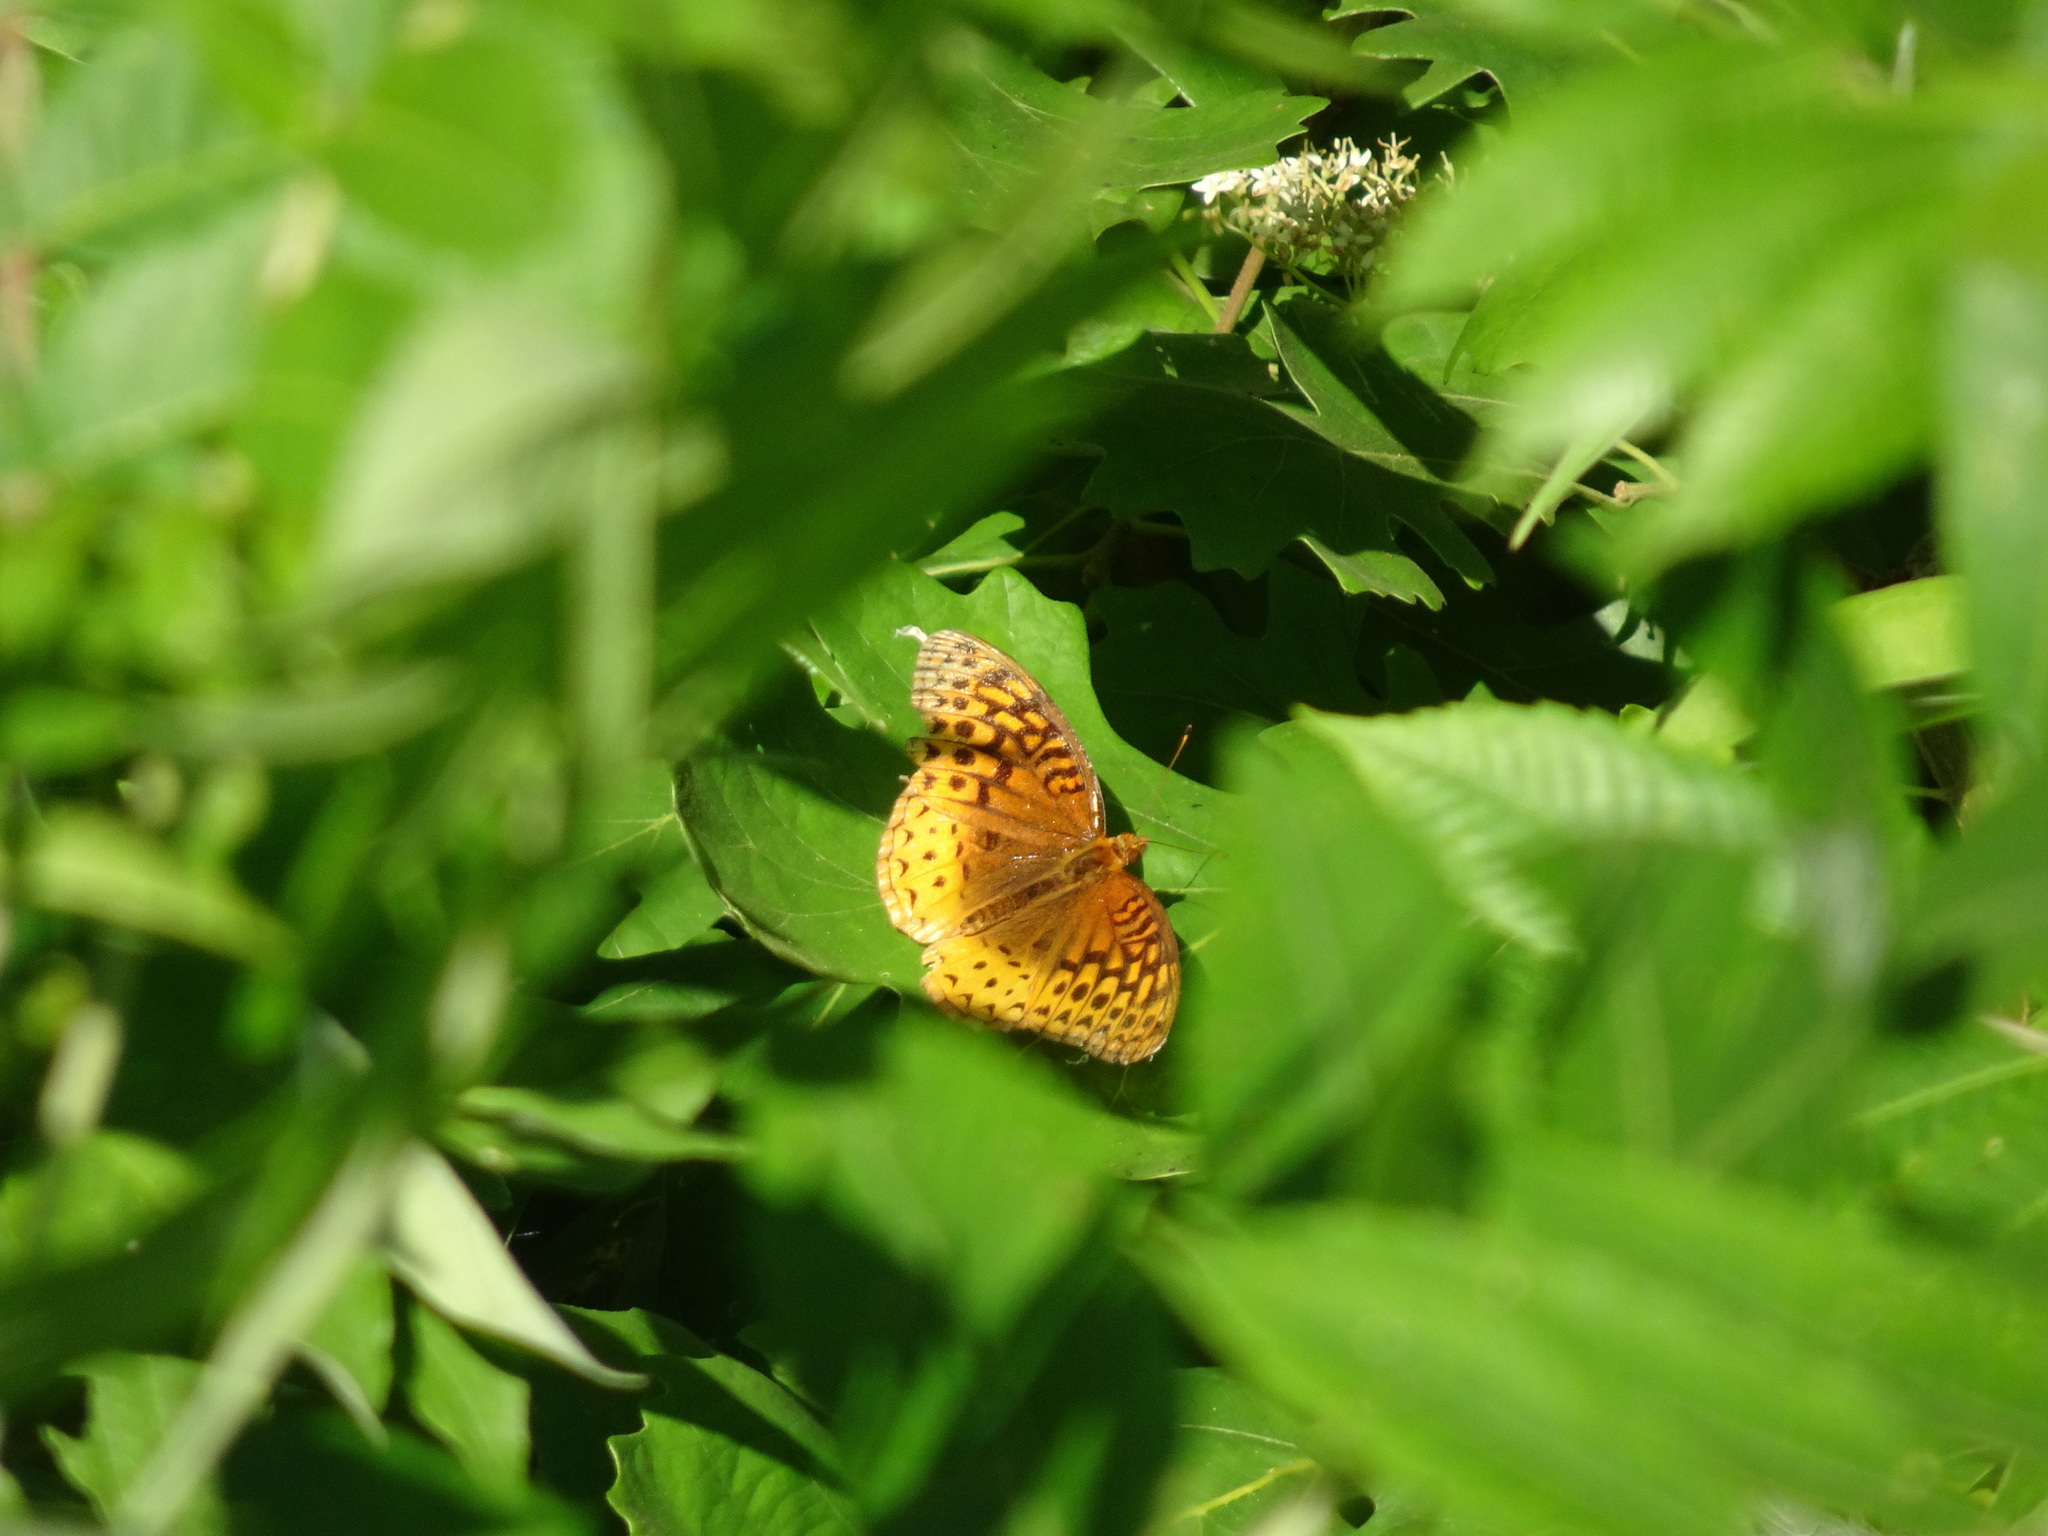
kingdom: Animalia
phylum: Arthropoda
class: Insecta
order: Lepidoptera
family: Nymphalidae
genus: Speyeria
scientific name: Speyeria cybele
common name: Great spangled fritillary
